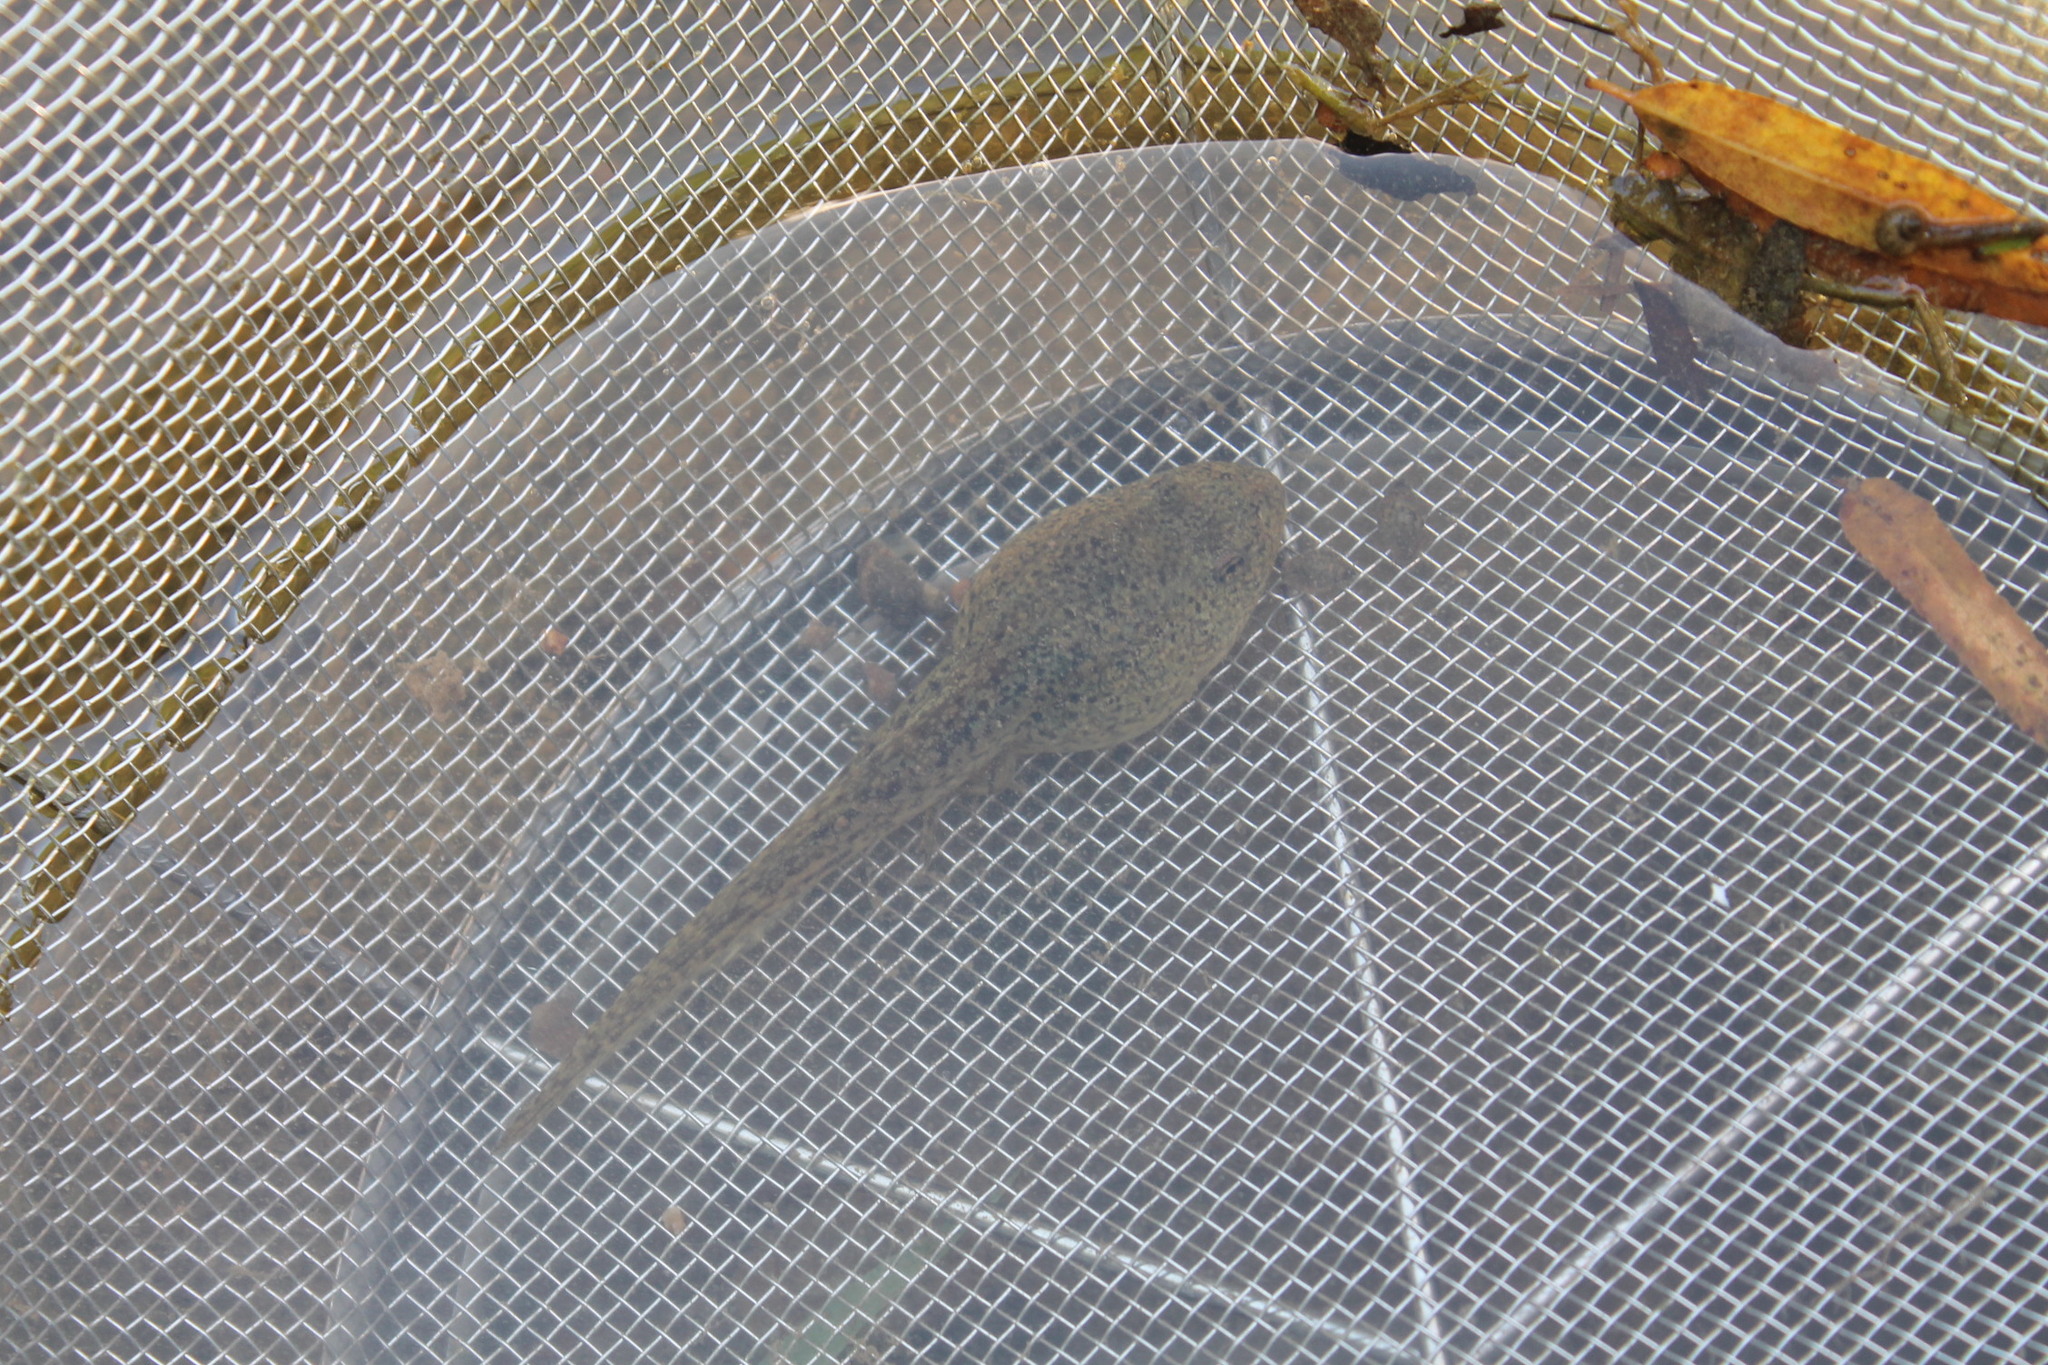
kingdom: Animalia
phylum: Chordata
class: Amphibia
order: Anura
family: Ranidae
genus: Lithobates
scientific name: Lithobates catesbeianus
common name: American bullfrog
